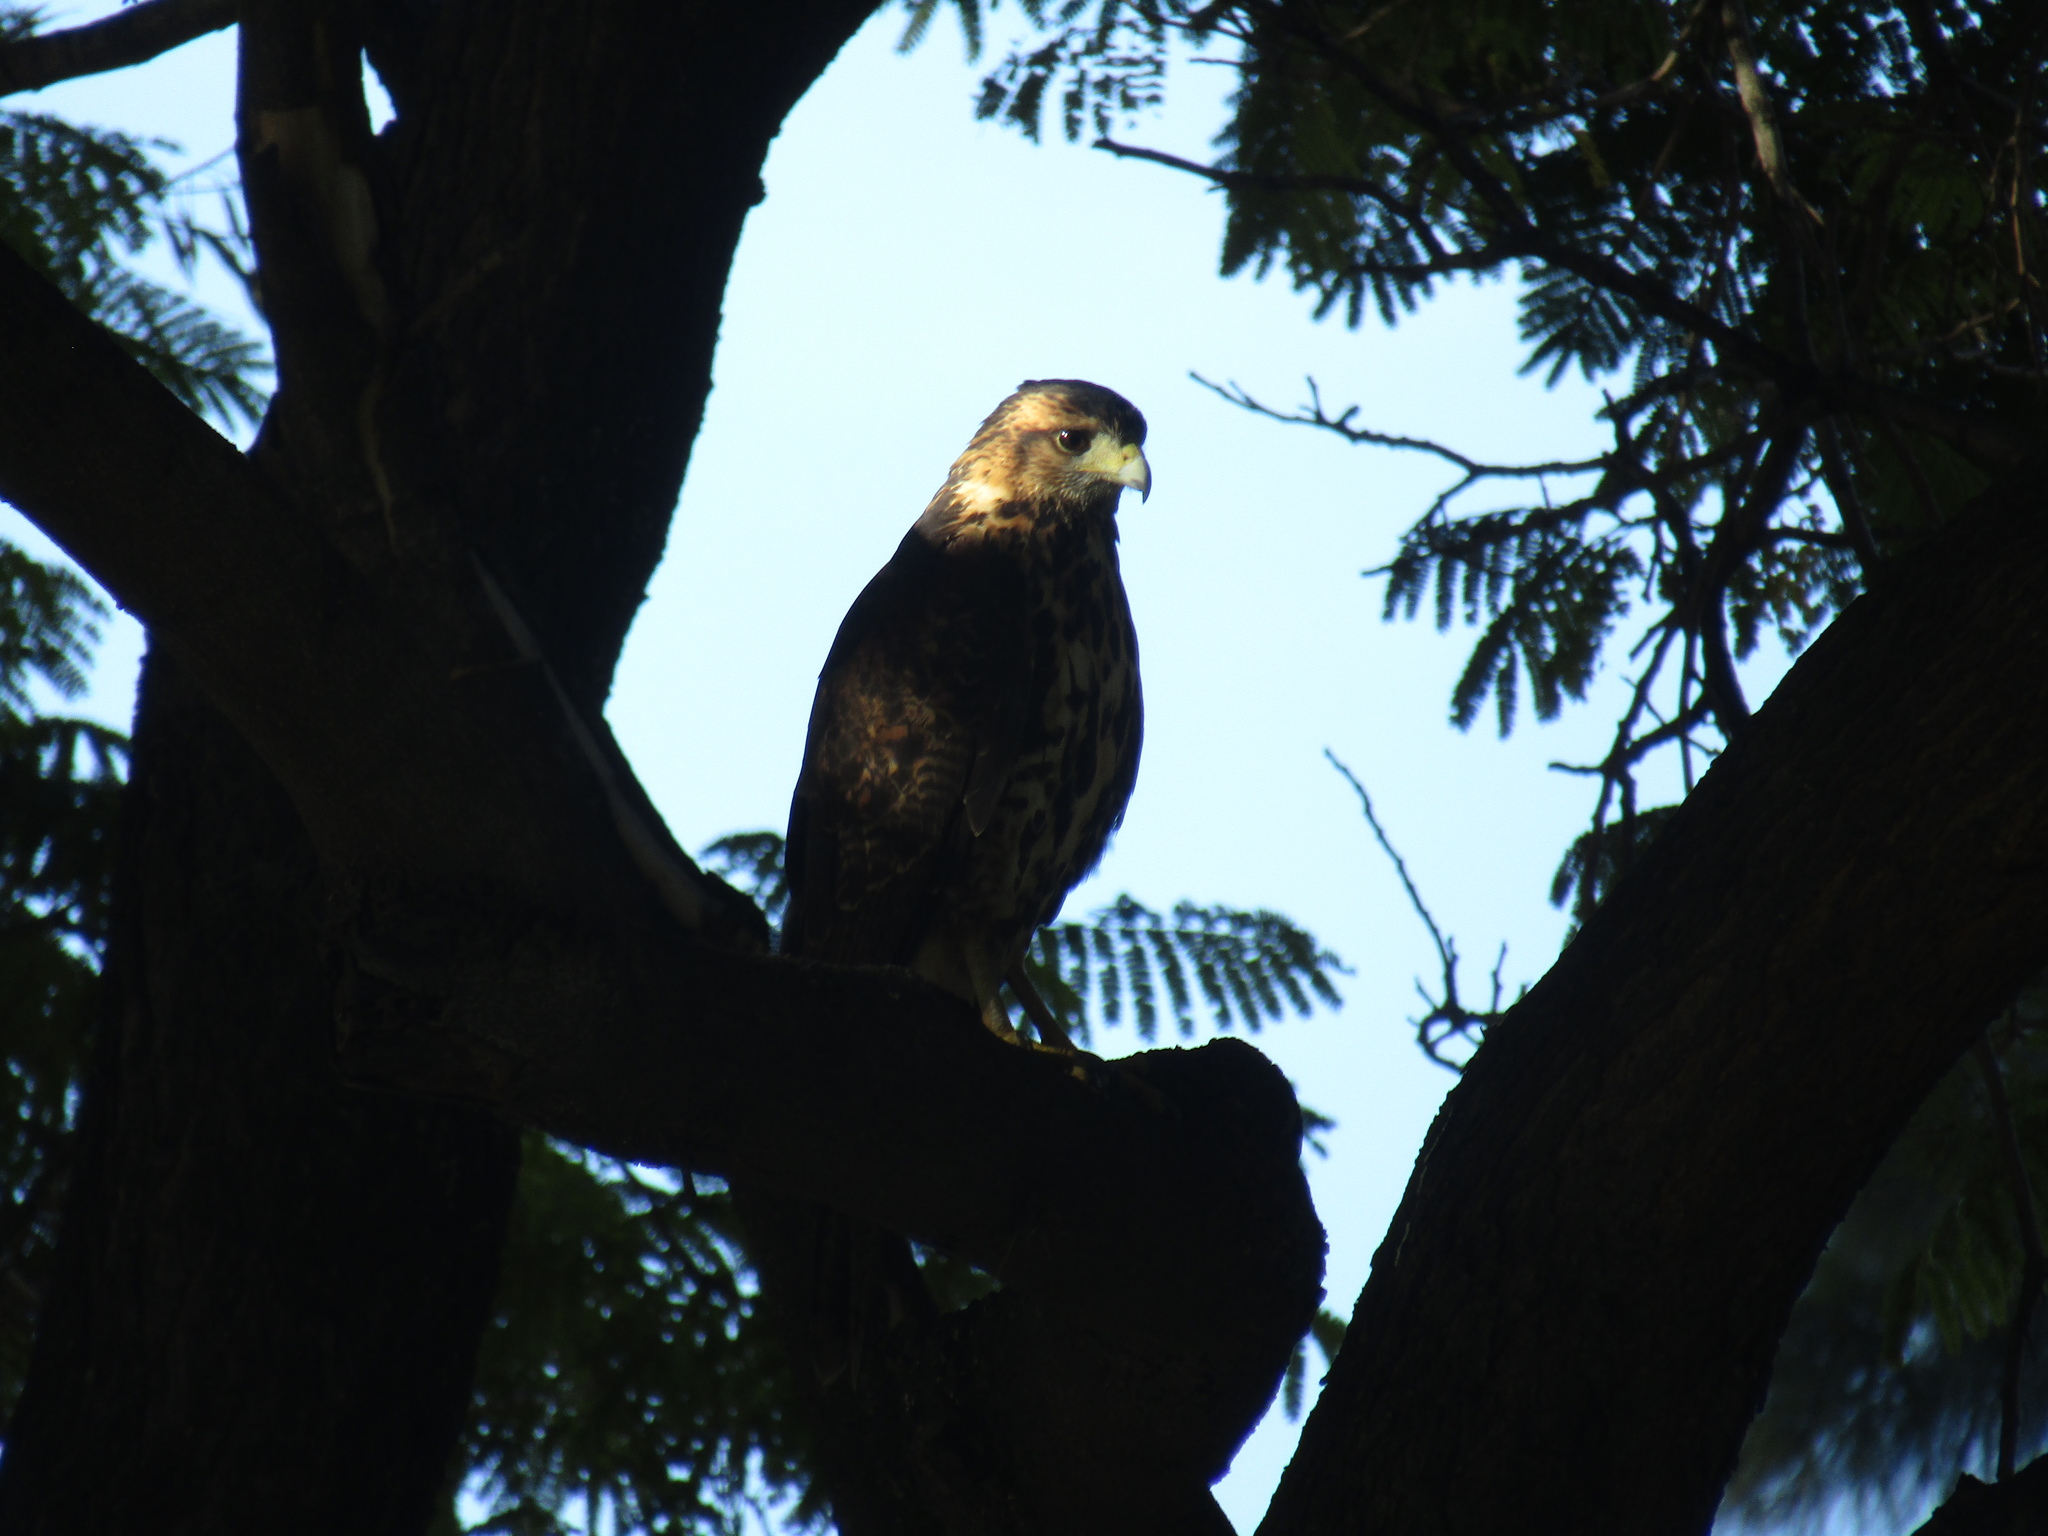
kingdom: Animalia
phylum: Chordata
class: Aves
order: Accipitriformes
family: Accipitridae
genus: Parabuteo
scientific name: Parabuteo unicinctus
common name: Harris's hawk
